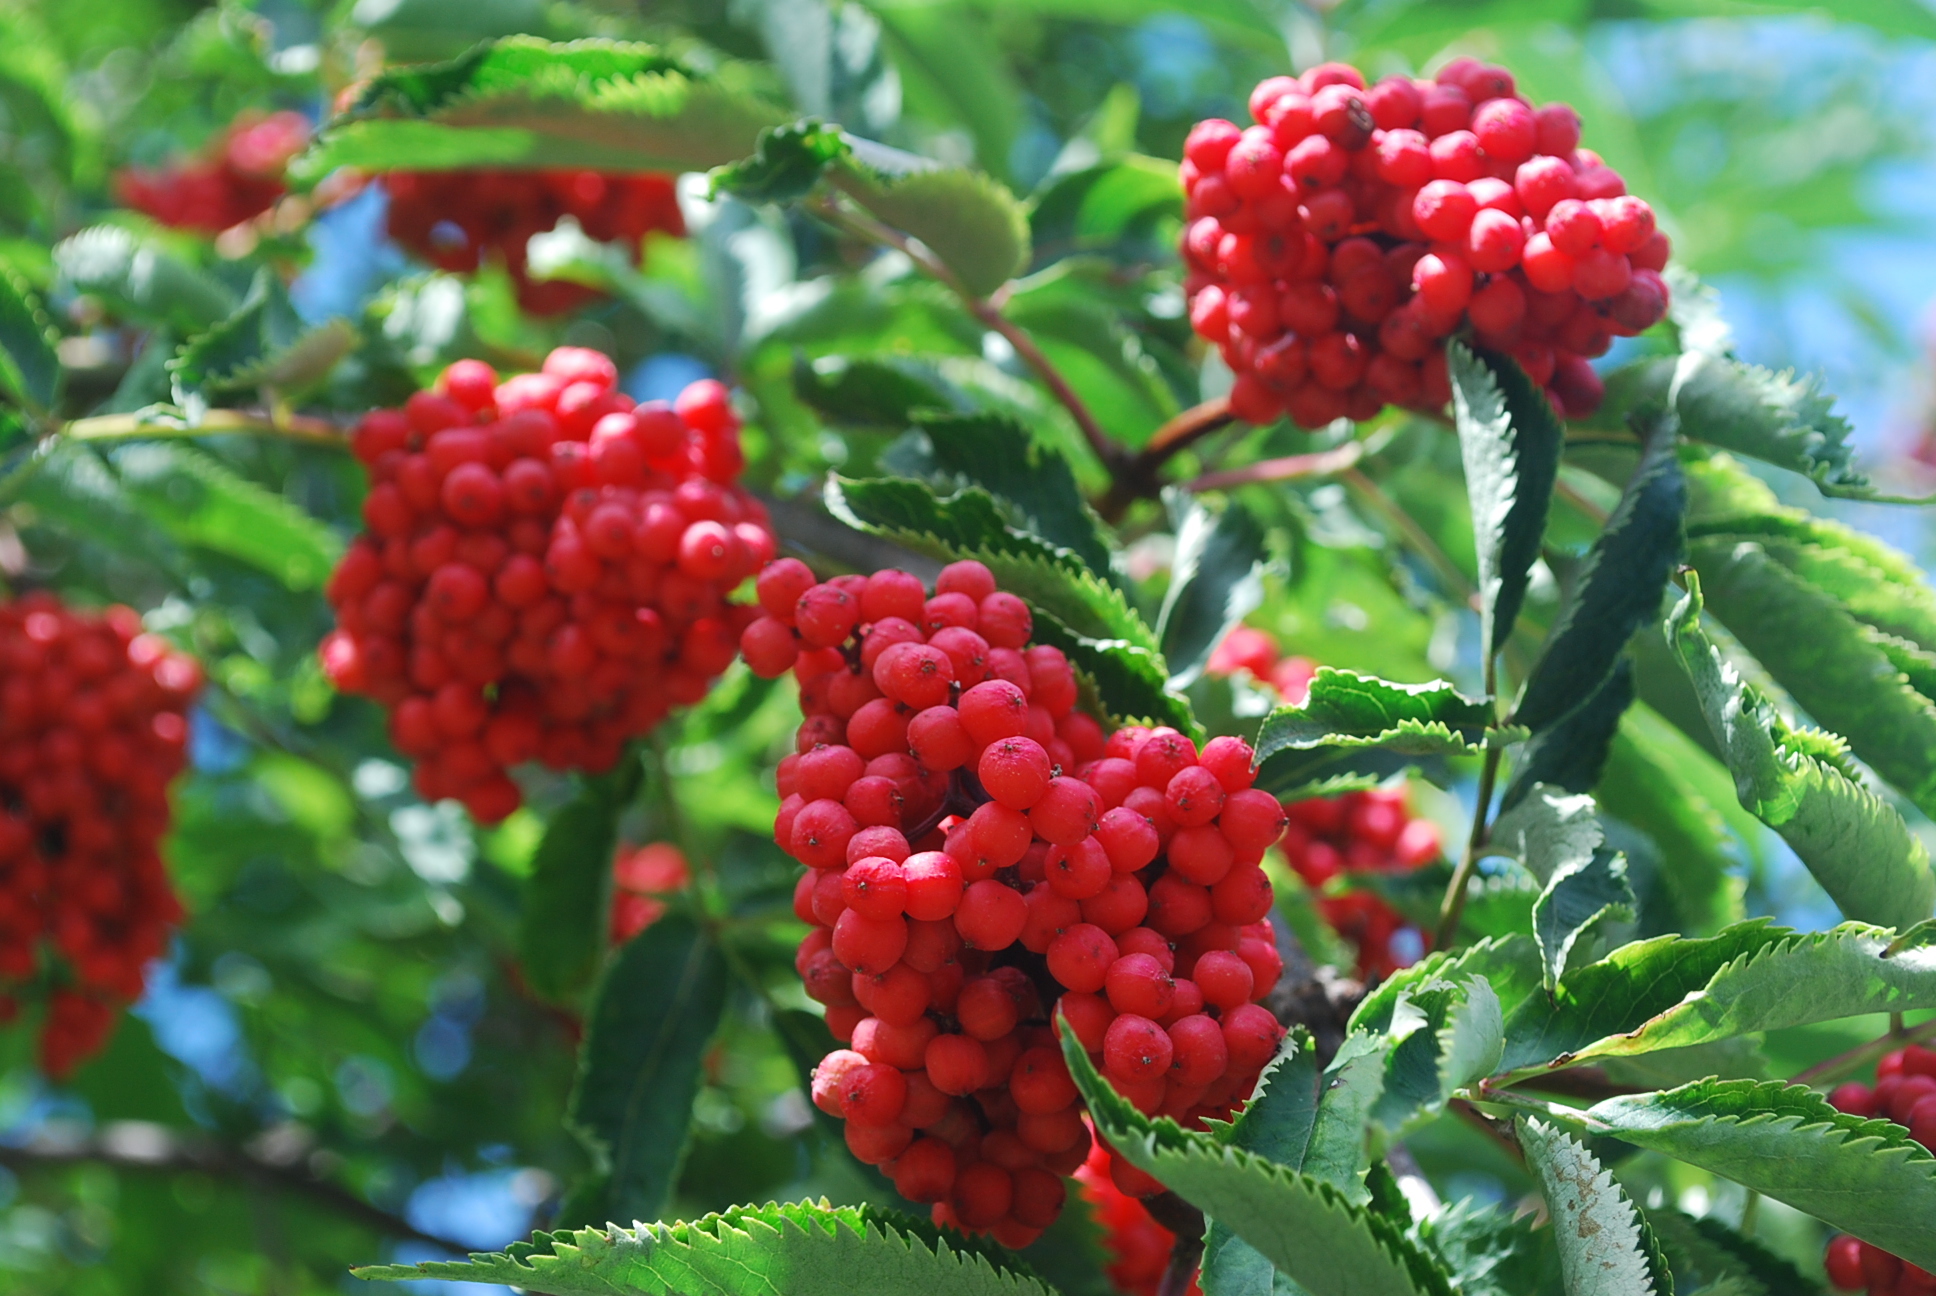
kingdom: Plantae
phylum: Tracheophyta
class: Magnoliopsida
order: Dipsacales
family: Viburnaceae
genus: Sambucus
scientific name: Sambucus racemosa
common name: Red-berried elder
